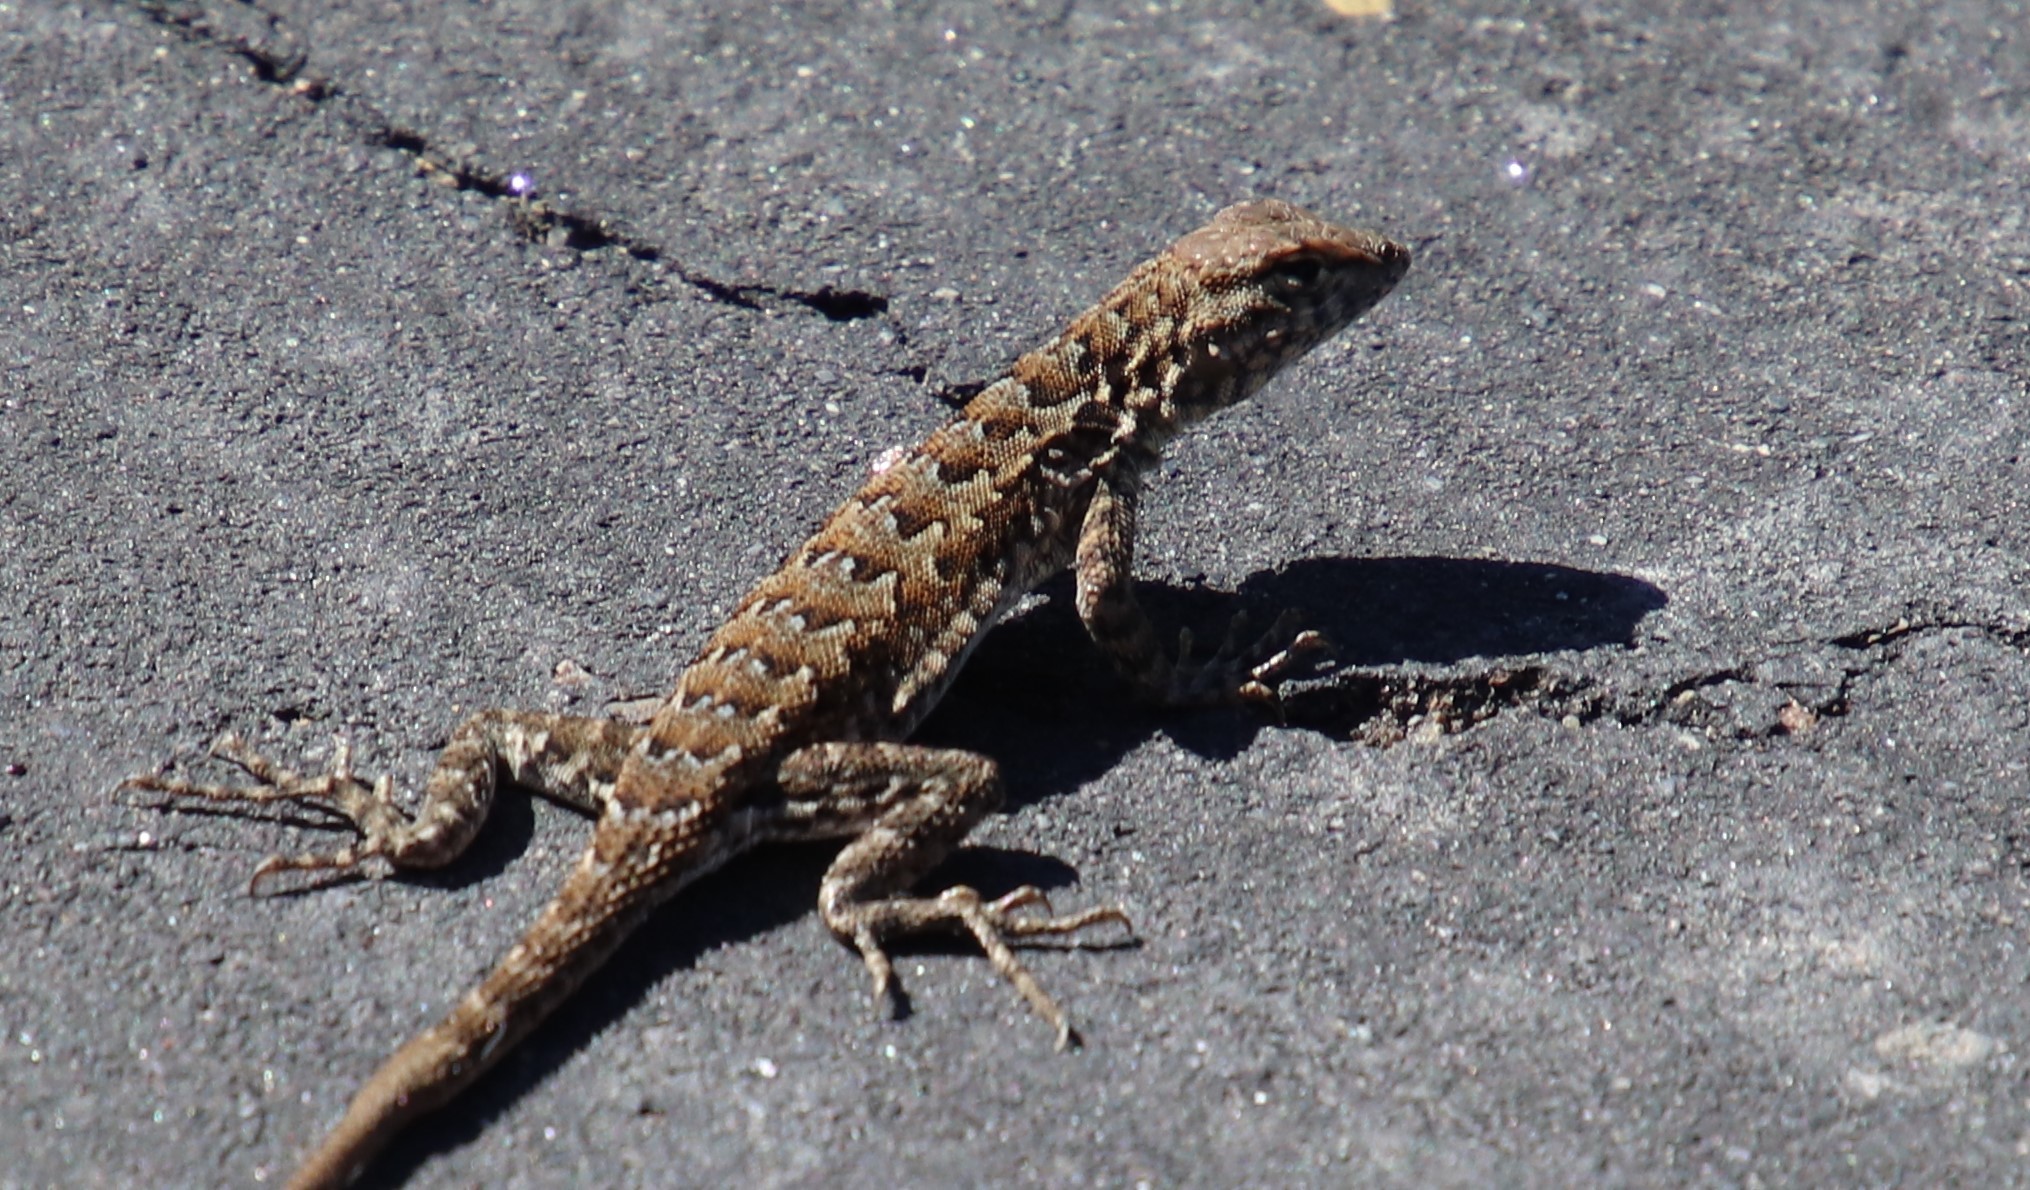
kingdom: Animalia
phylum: Chordata
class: Squamata
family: Phrynosomatidae
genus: Uta
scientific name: Uta stansburiana
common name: Side-blotched lizard
